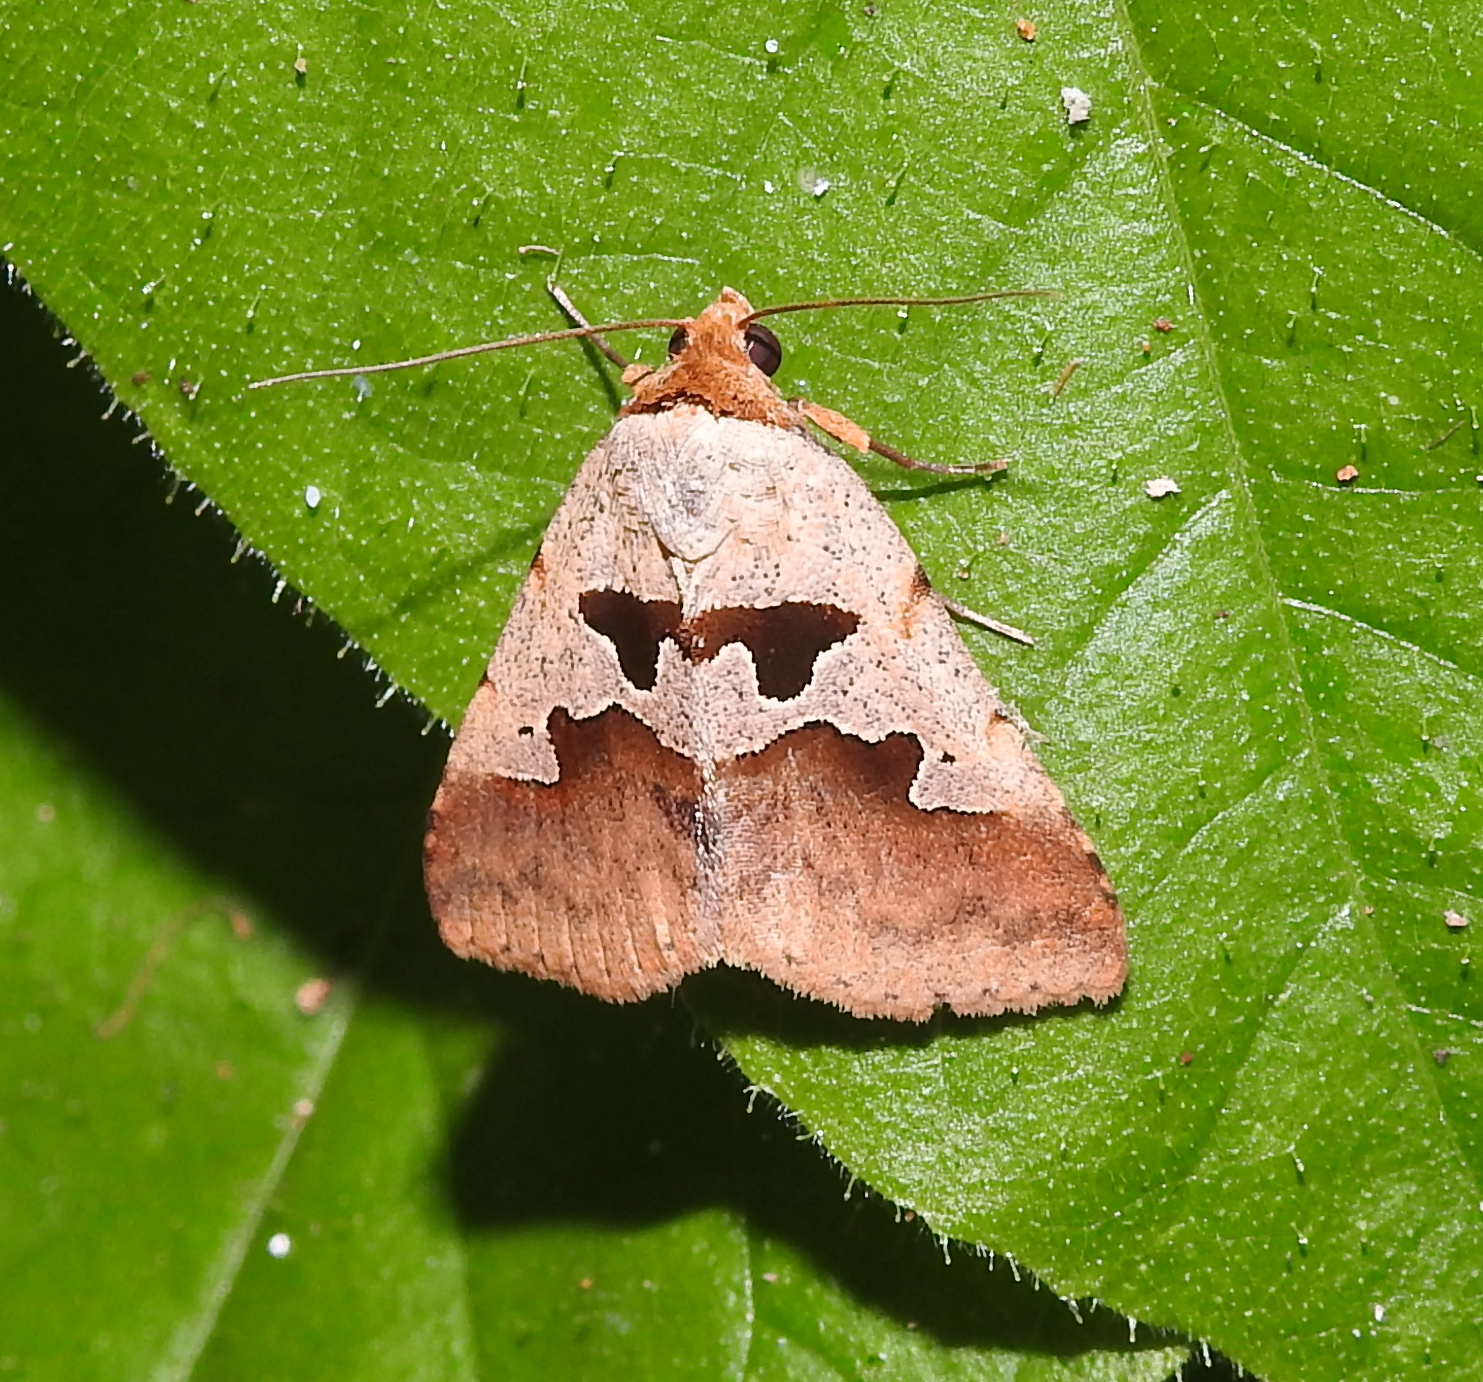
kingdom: Animalia
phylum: Arthropoda
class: Insecta
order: Lepidoptera
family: Erebidae
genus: Crithote
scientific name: Crithote horridipes
